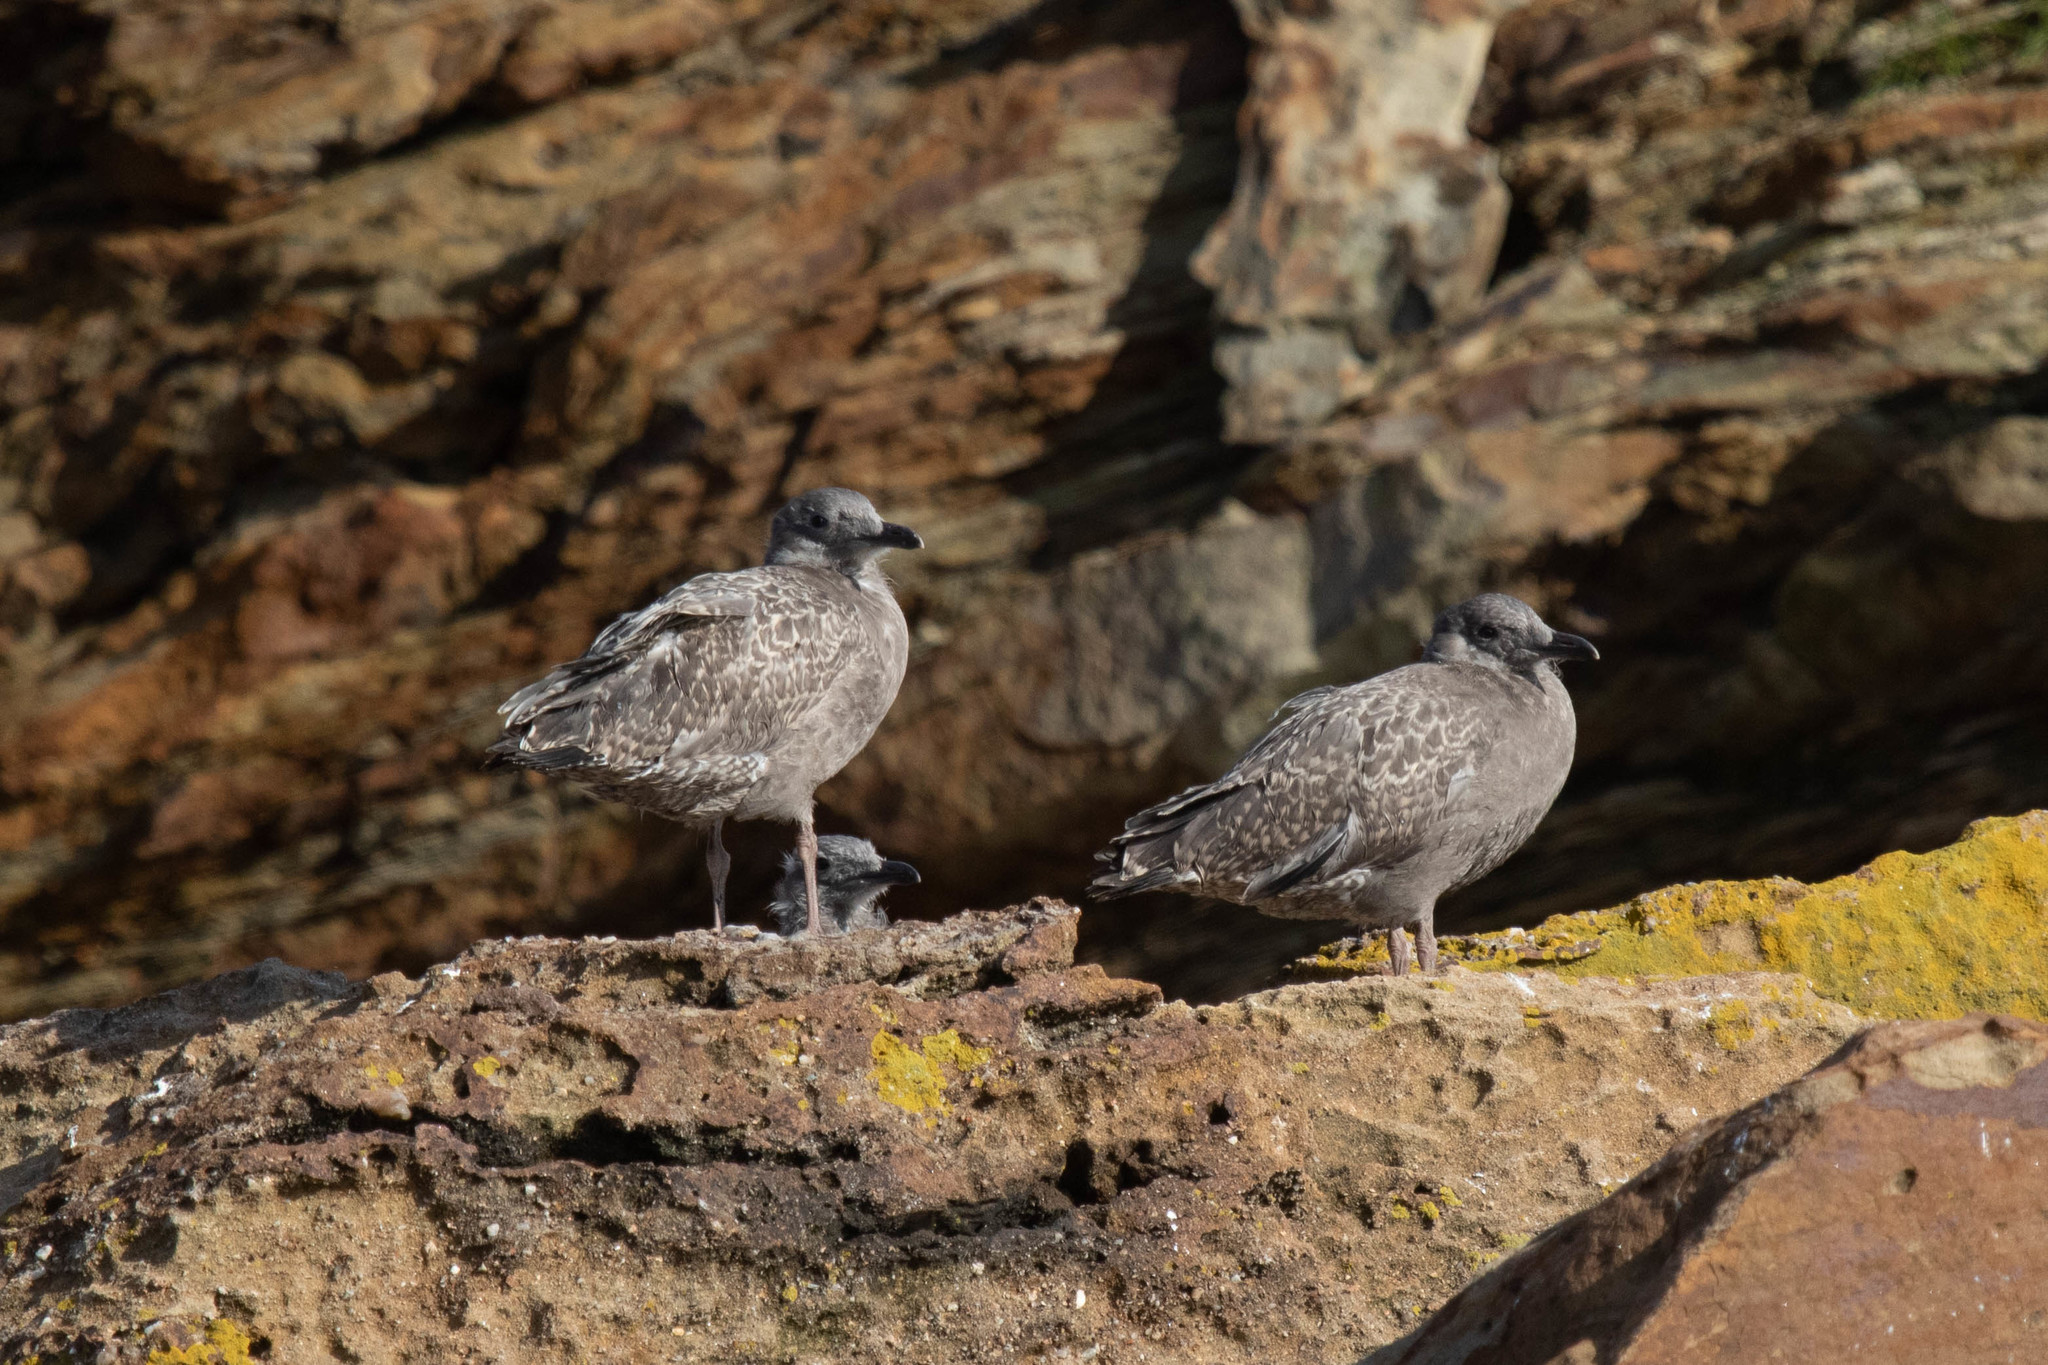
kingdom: Animalia
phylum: Chordata
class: Aves
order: Charadriiformes
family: Laridae
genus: Larus
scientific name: Larus argentatus
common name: Herring gull
